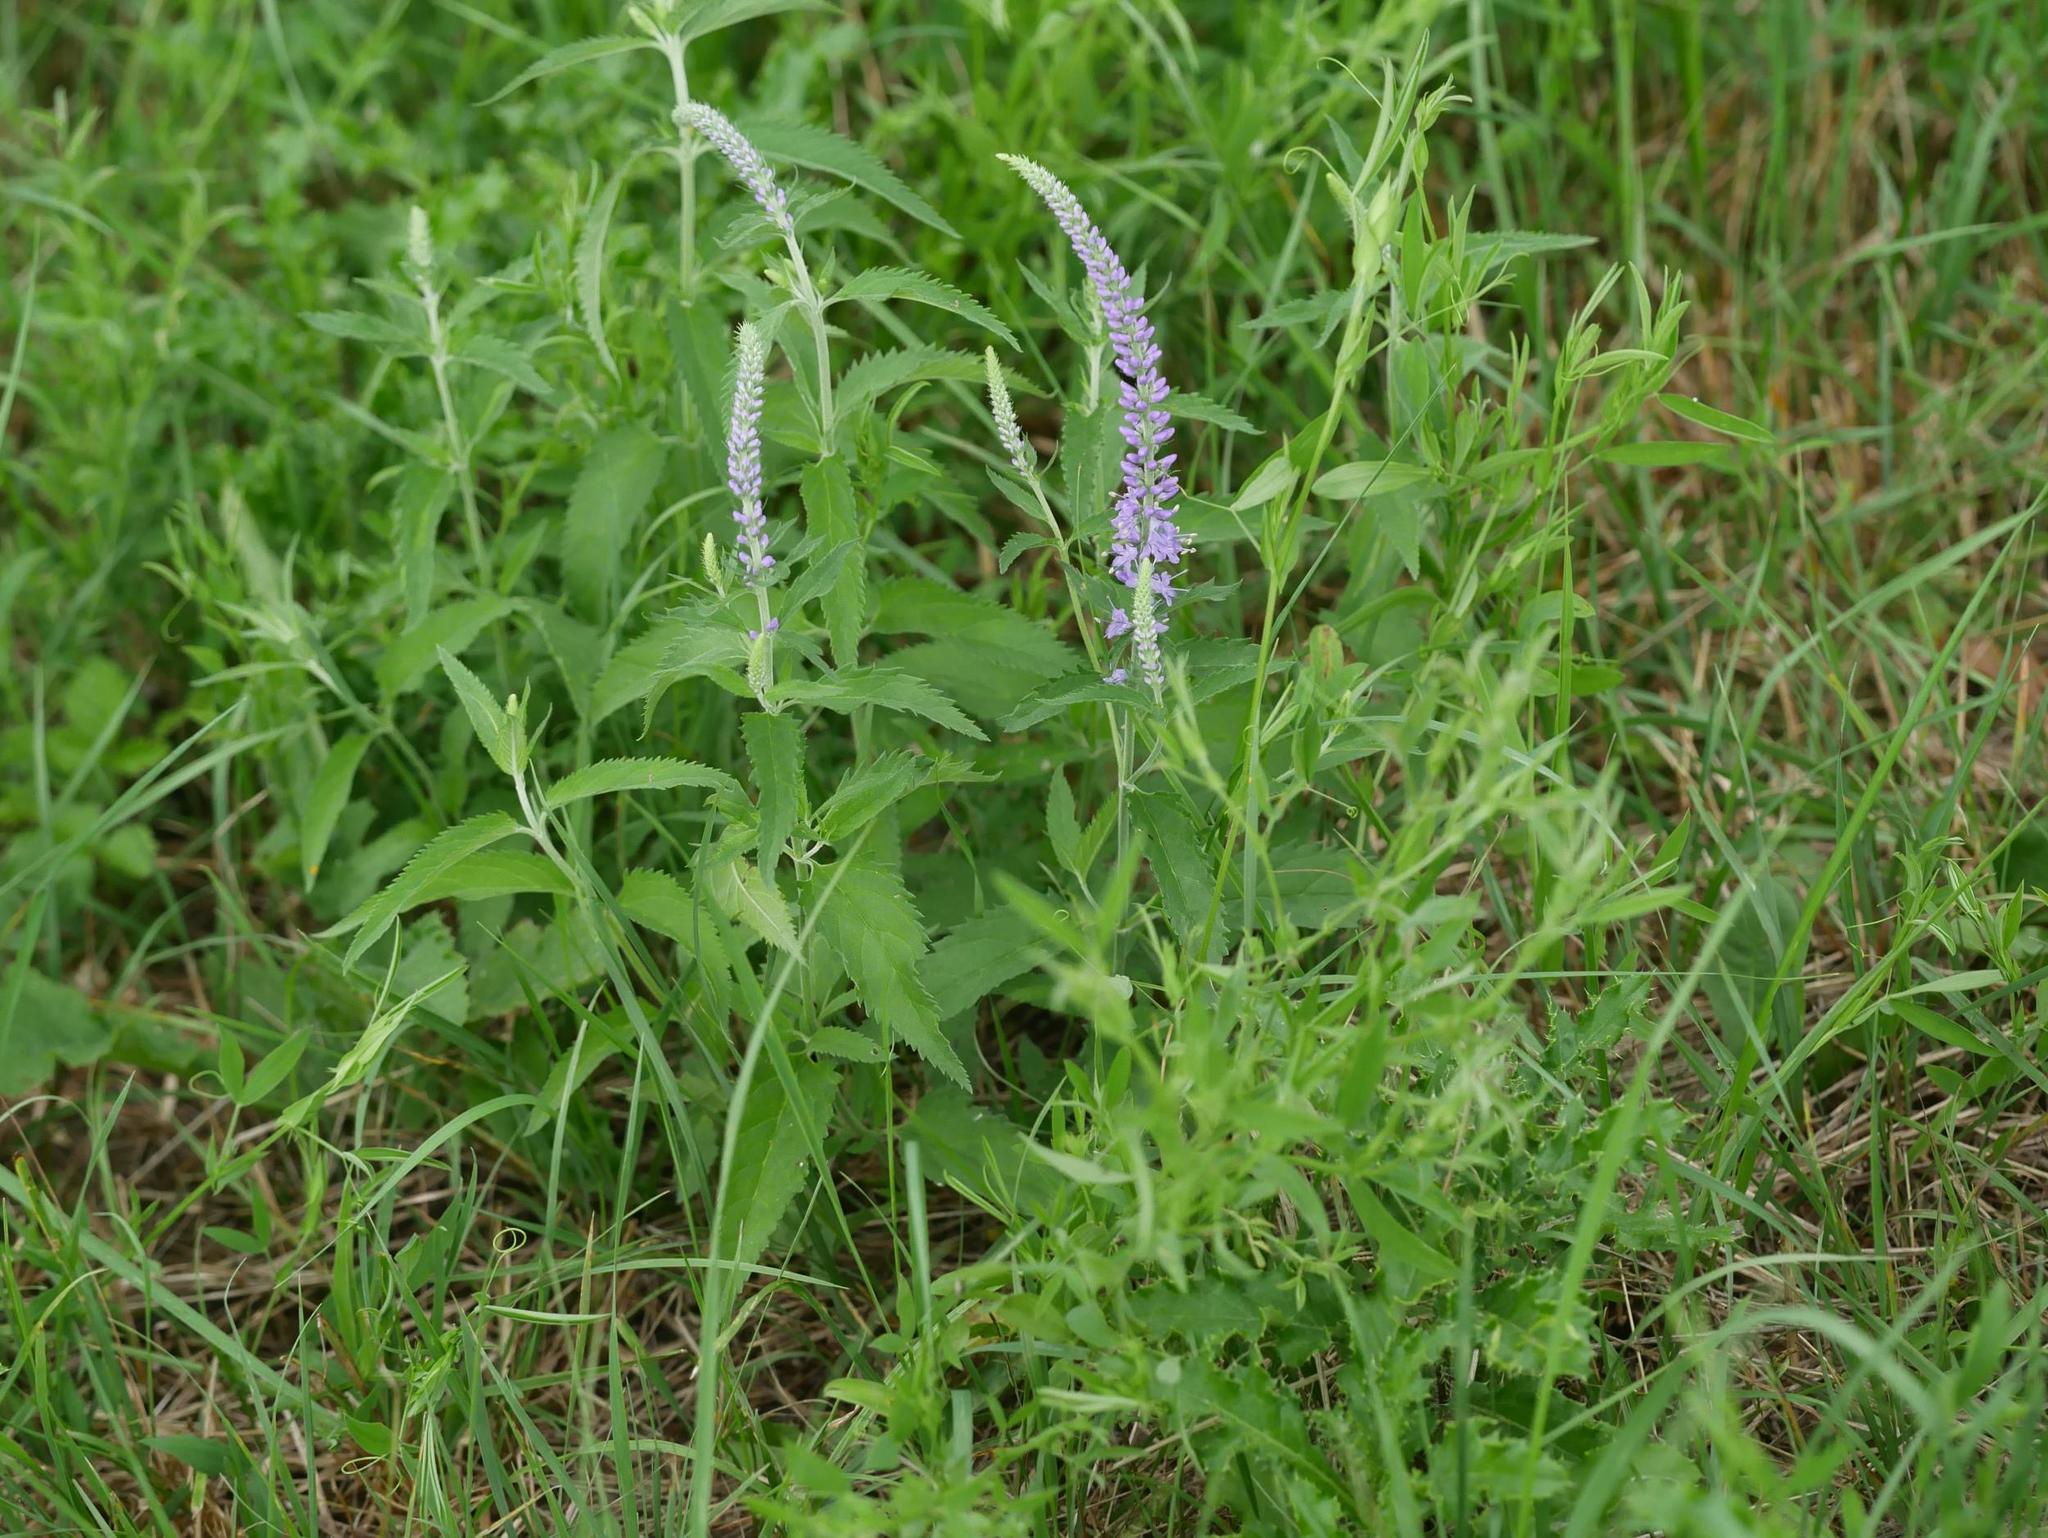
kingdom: Plantae
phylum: Tracheophyta
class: Magnoliopsida
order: Lamiales
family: Plantaginaceae
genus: Veronica
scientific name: Veronica longifolia
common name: Garden speedwell
